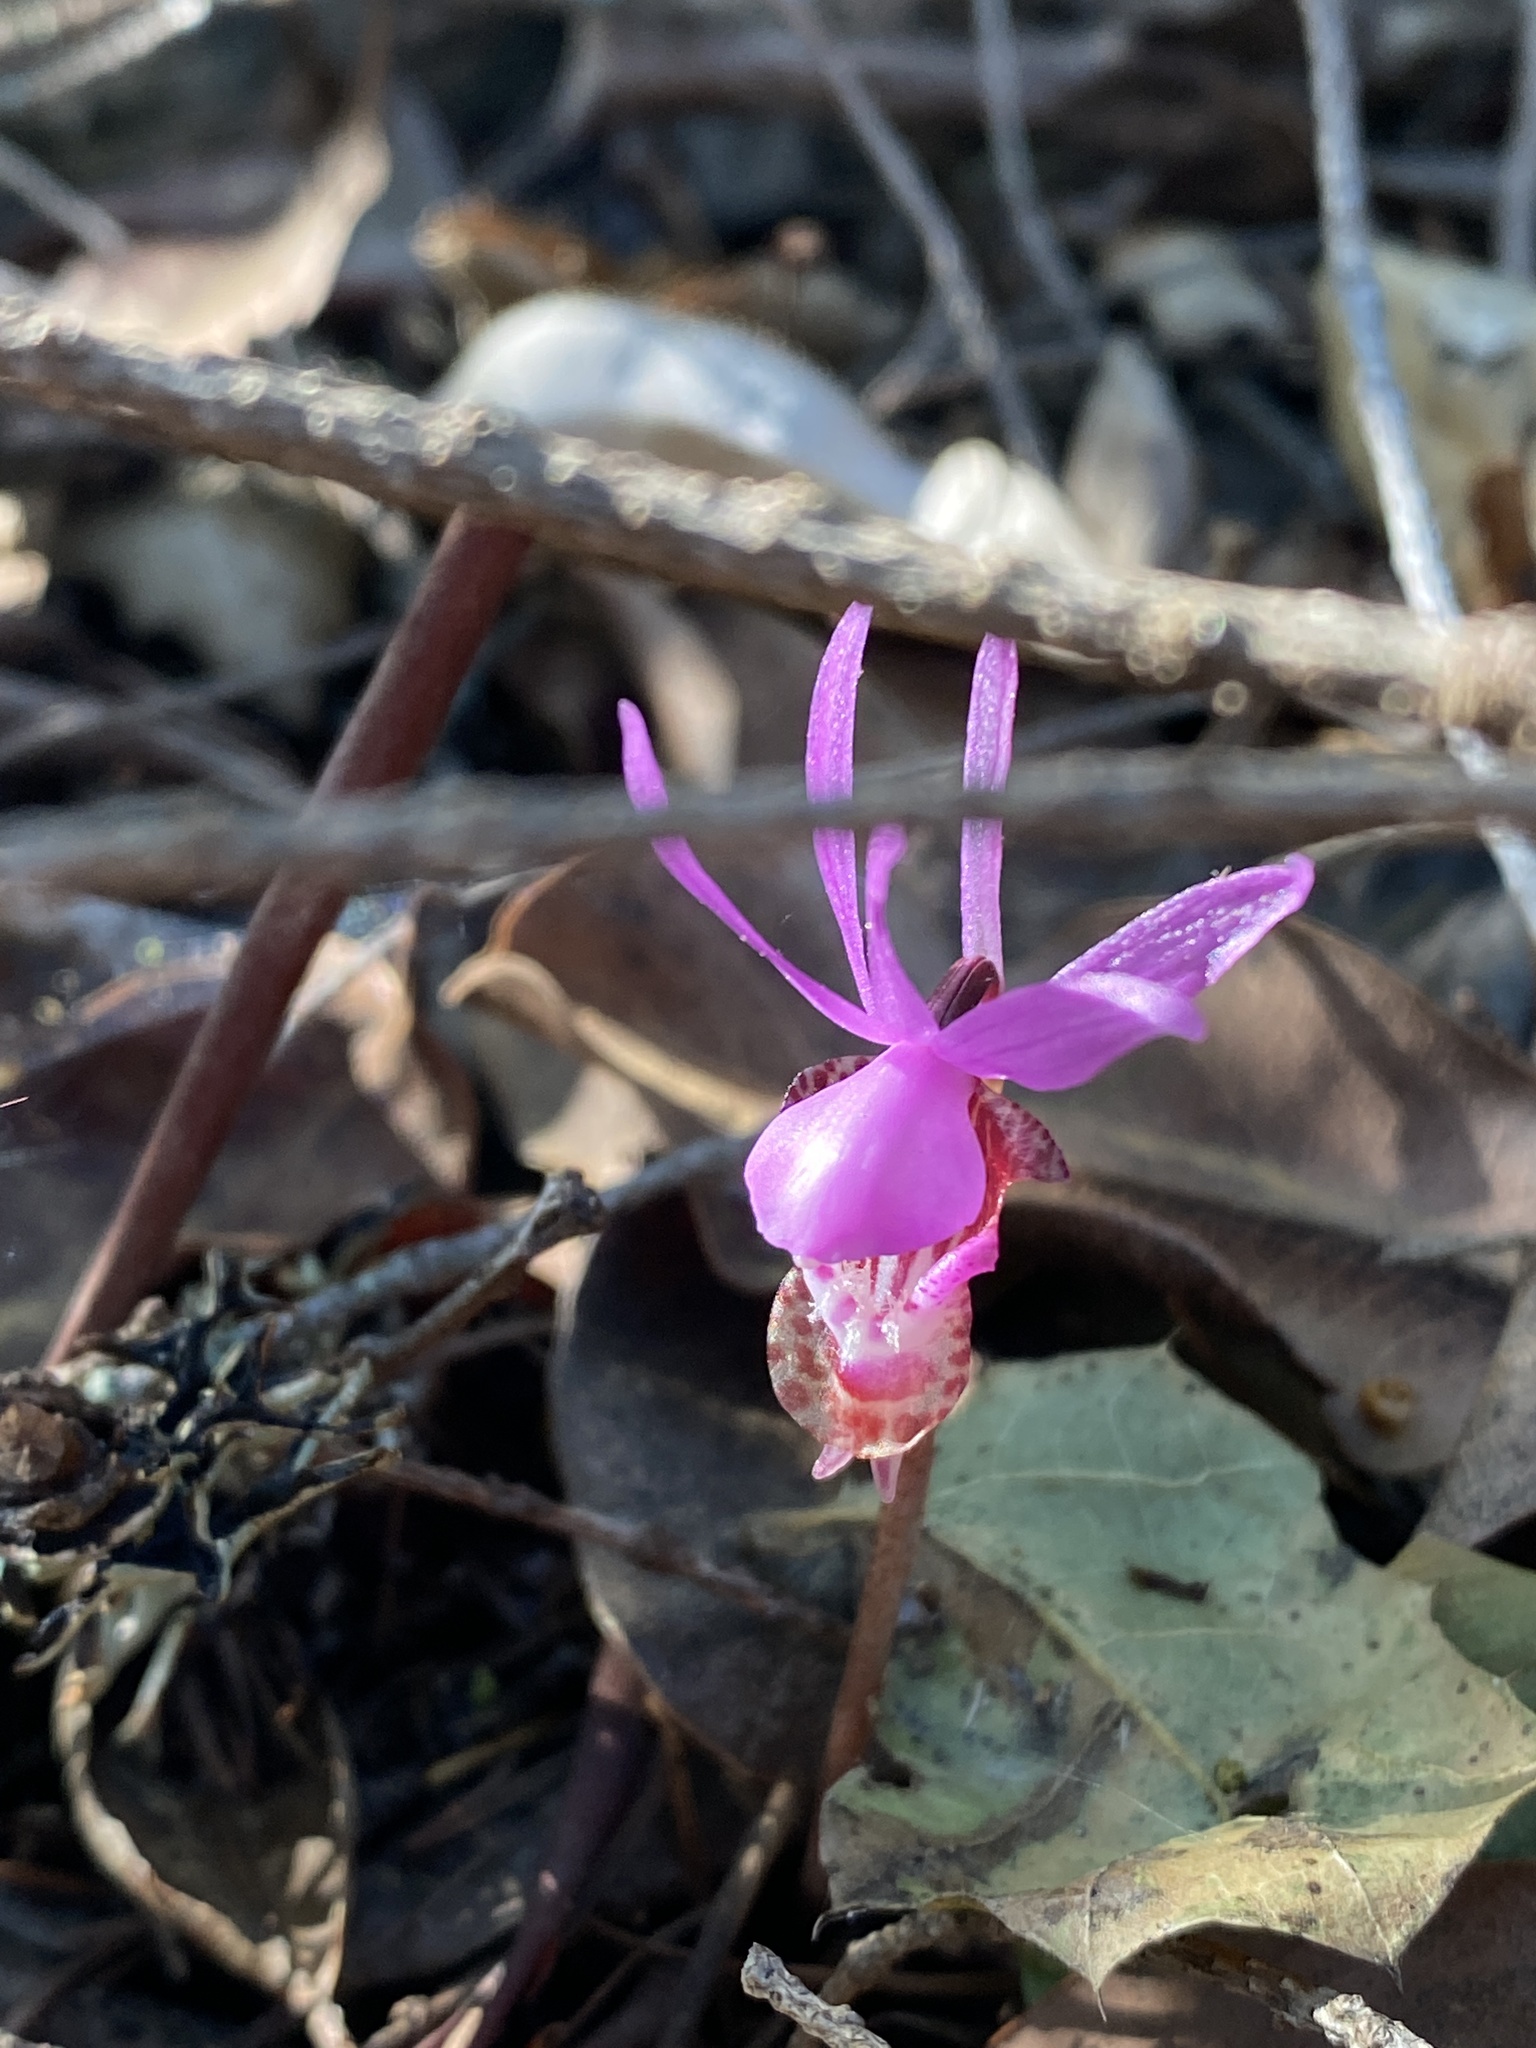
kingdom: Plantae
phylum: Tracheophyta
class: Liliopsida
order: Asparagales
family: Orchidaceae
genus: Calypso
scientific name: Calypso bulbosa
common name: Calypso
